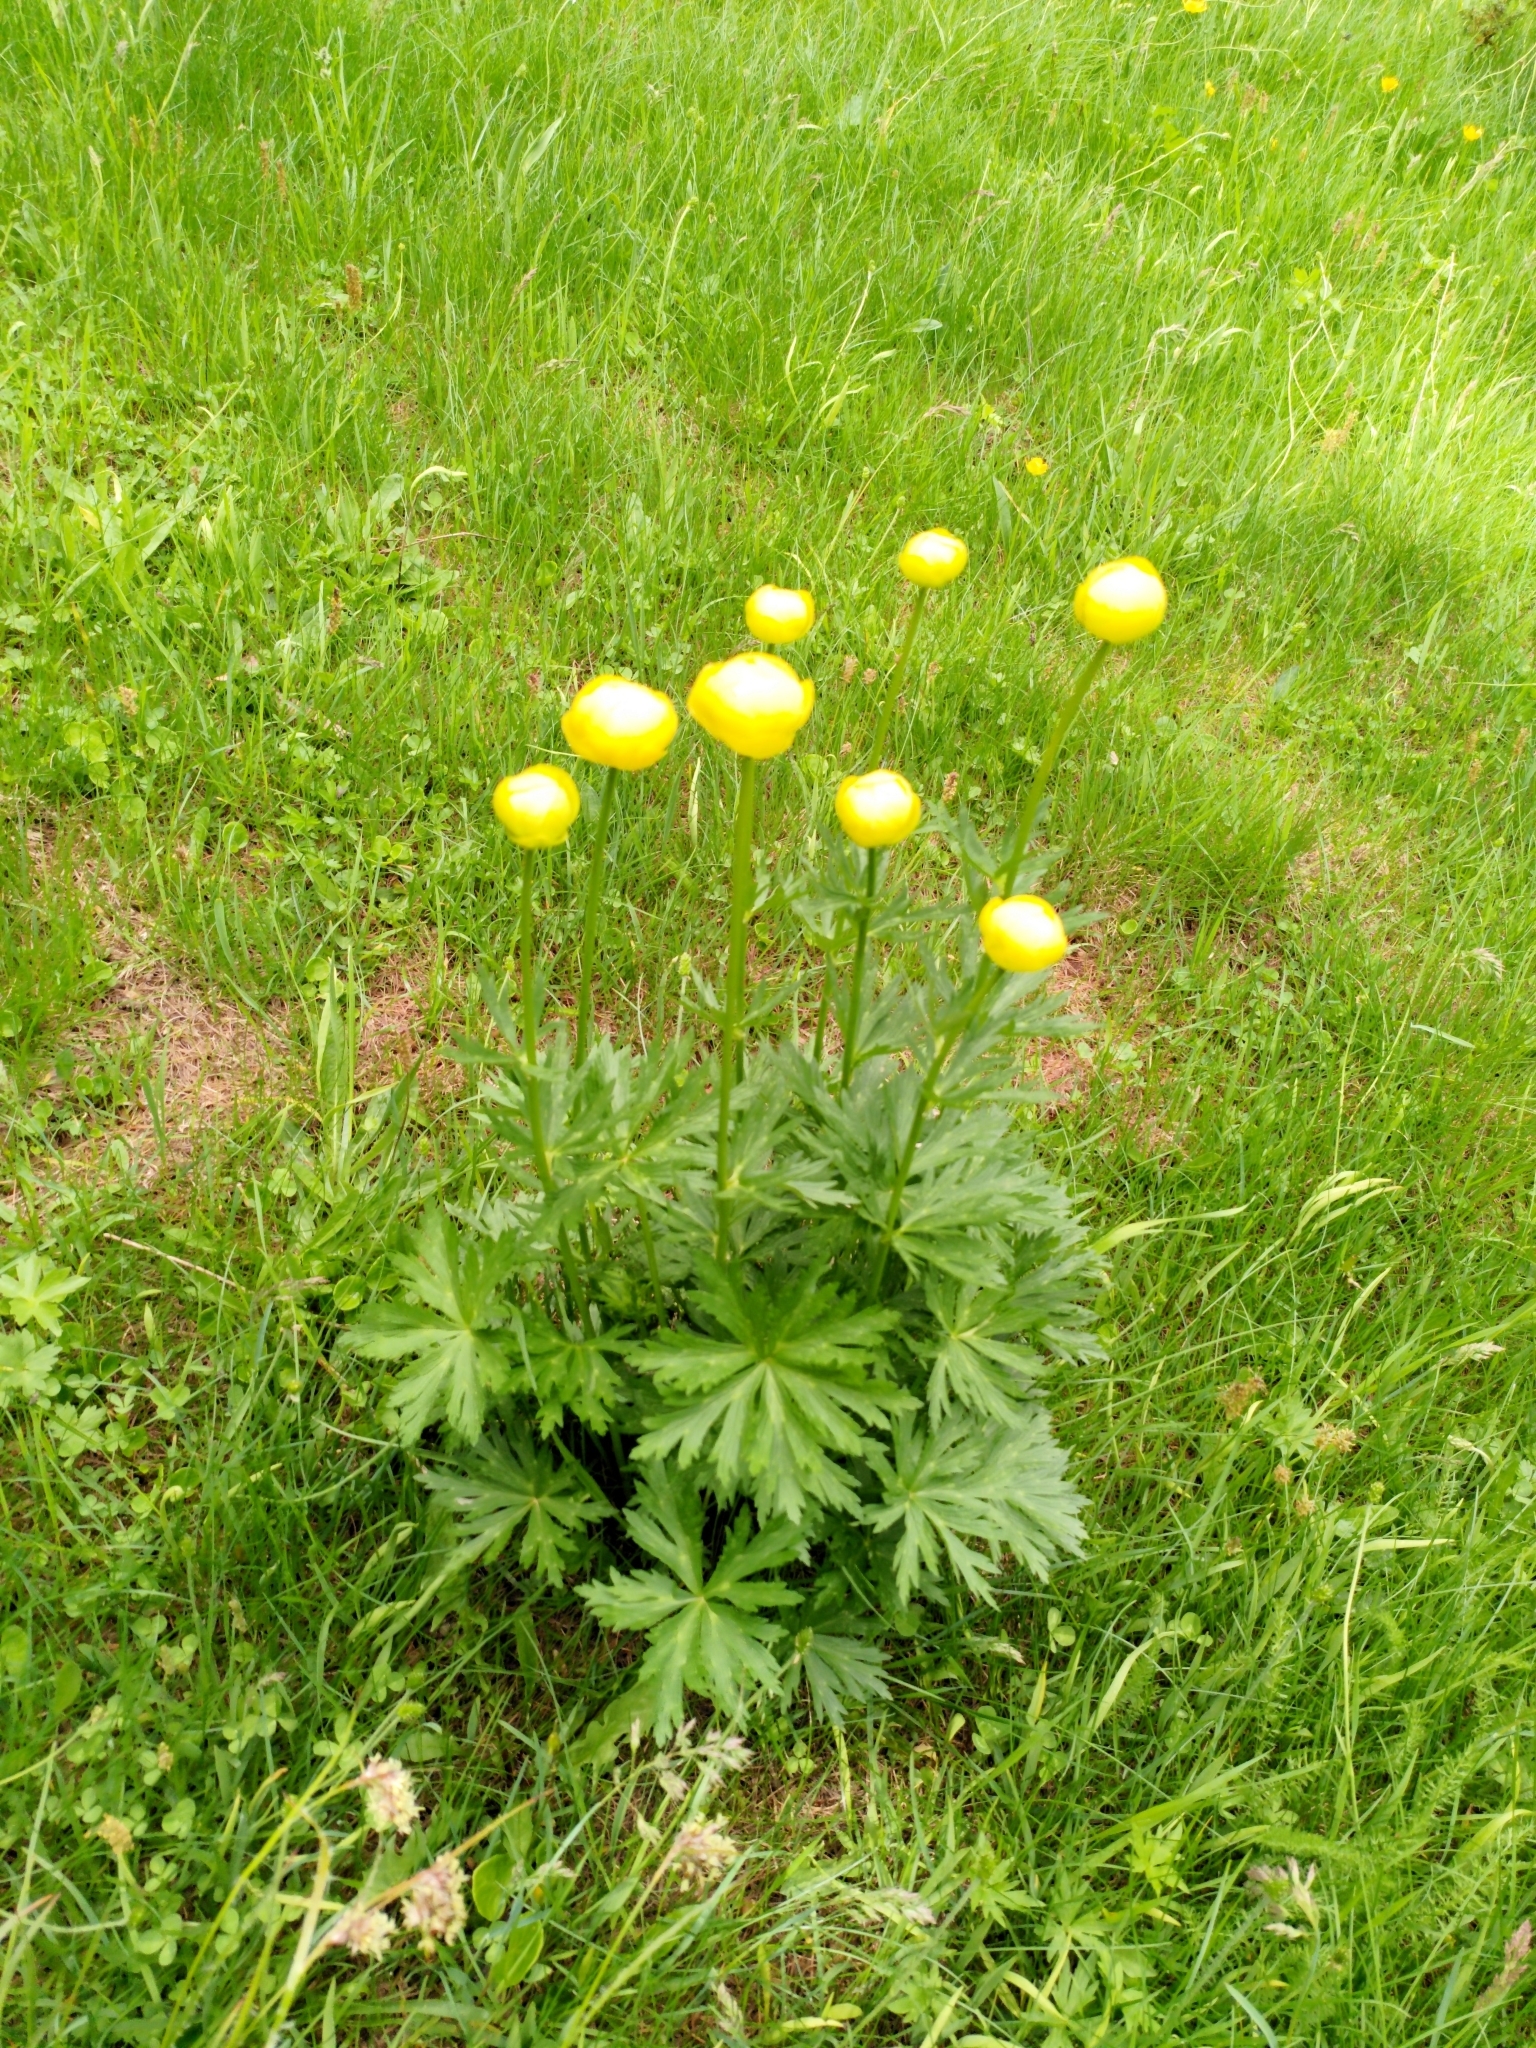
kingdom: Plantae
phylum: Tracheophyta
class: Magnoliopsida
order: Ranunculales
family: Ranunculaceae
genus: Trollius
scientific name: Trollius europaeus
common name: European globeflower
